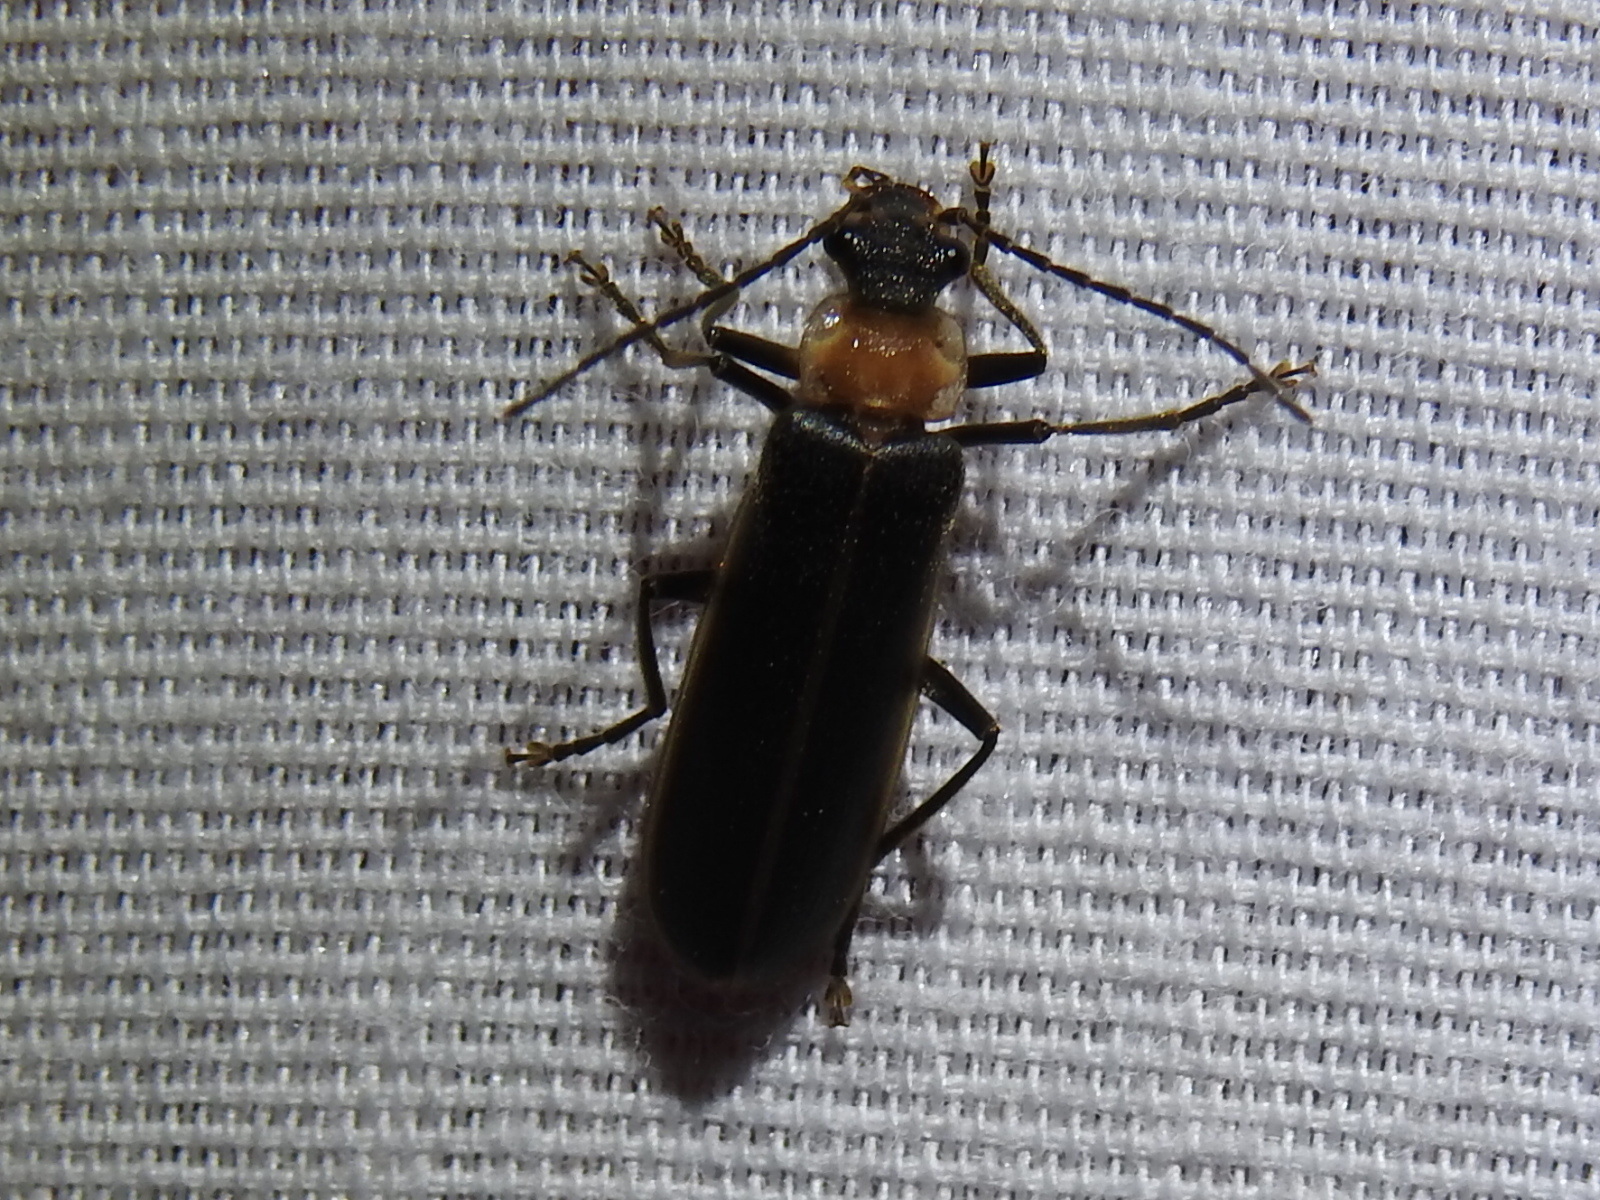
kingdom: Animalia
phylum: Arthropoda
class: Insecta
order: Coleoptera
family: Cantharidae
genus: Podabrus
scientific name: Podabrus flavicollis
